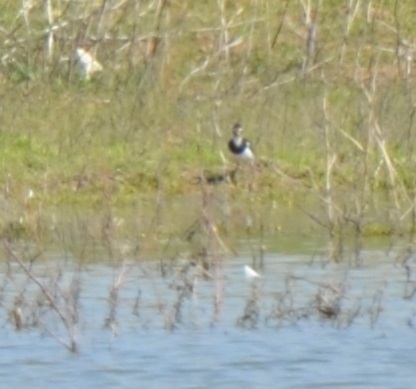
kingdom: Animalia
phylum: Chordata
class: Aves
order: Charadriiformes
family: Charadriidae
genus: Vanellus
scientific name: Vanellus vanellus
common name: Northern lapwing
